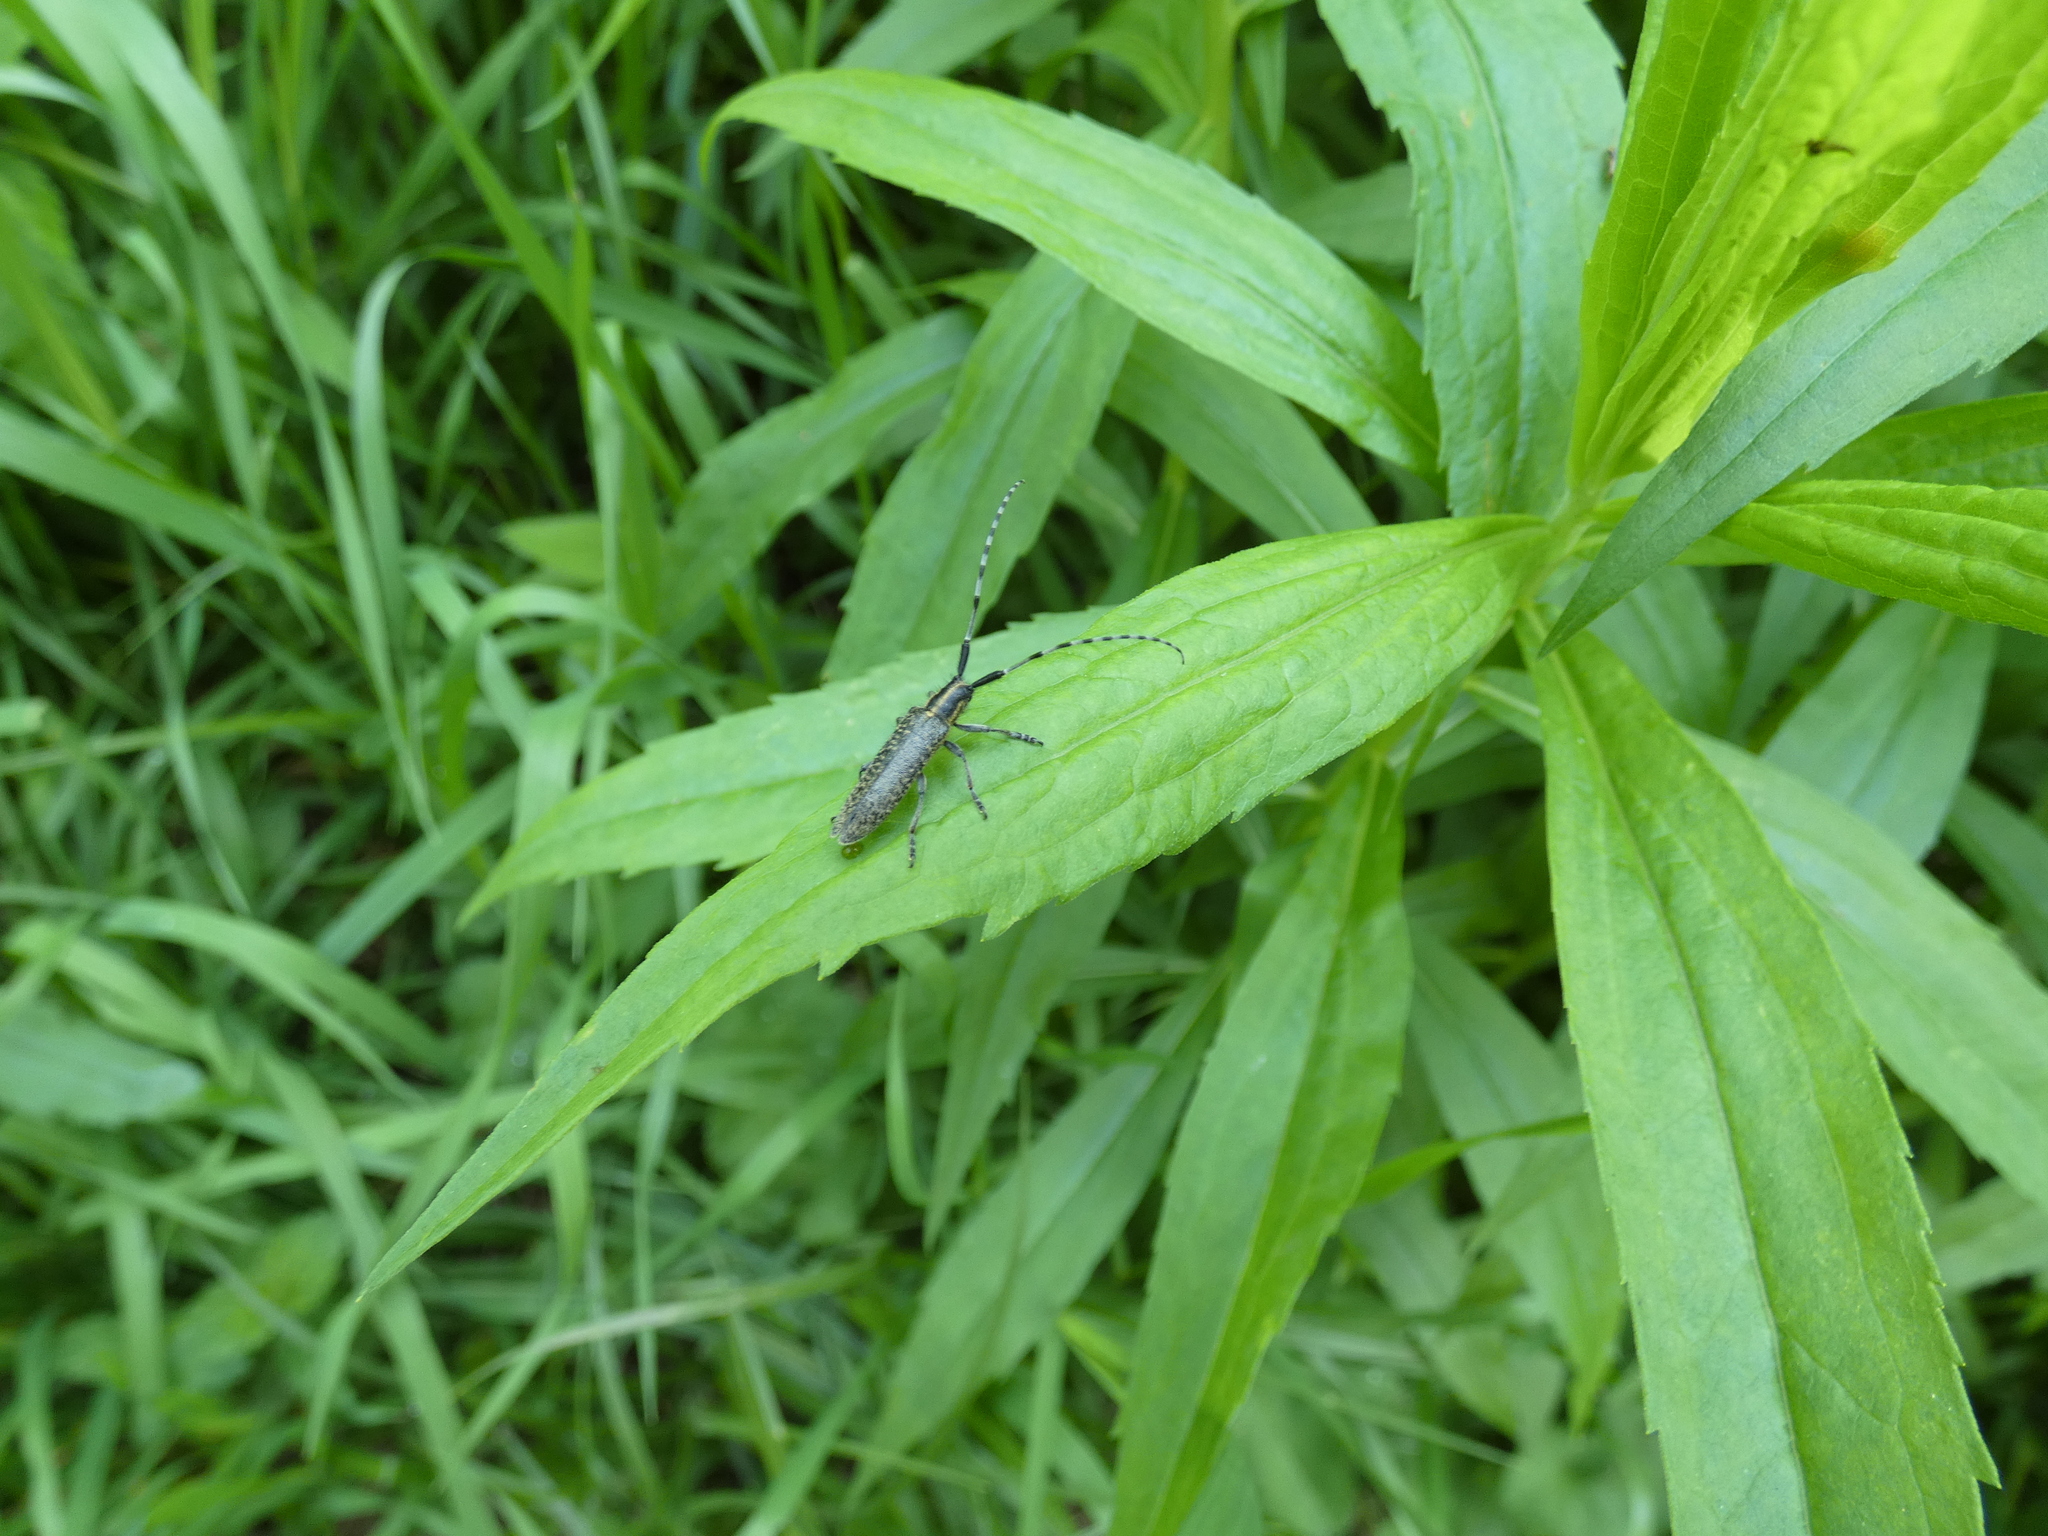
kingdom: Animalia
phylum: Arthropoda
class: Insecta
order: Coleoptera
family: Cerambycidae
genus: Agapanthia
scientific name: Agapanthia villosoviridescens
